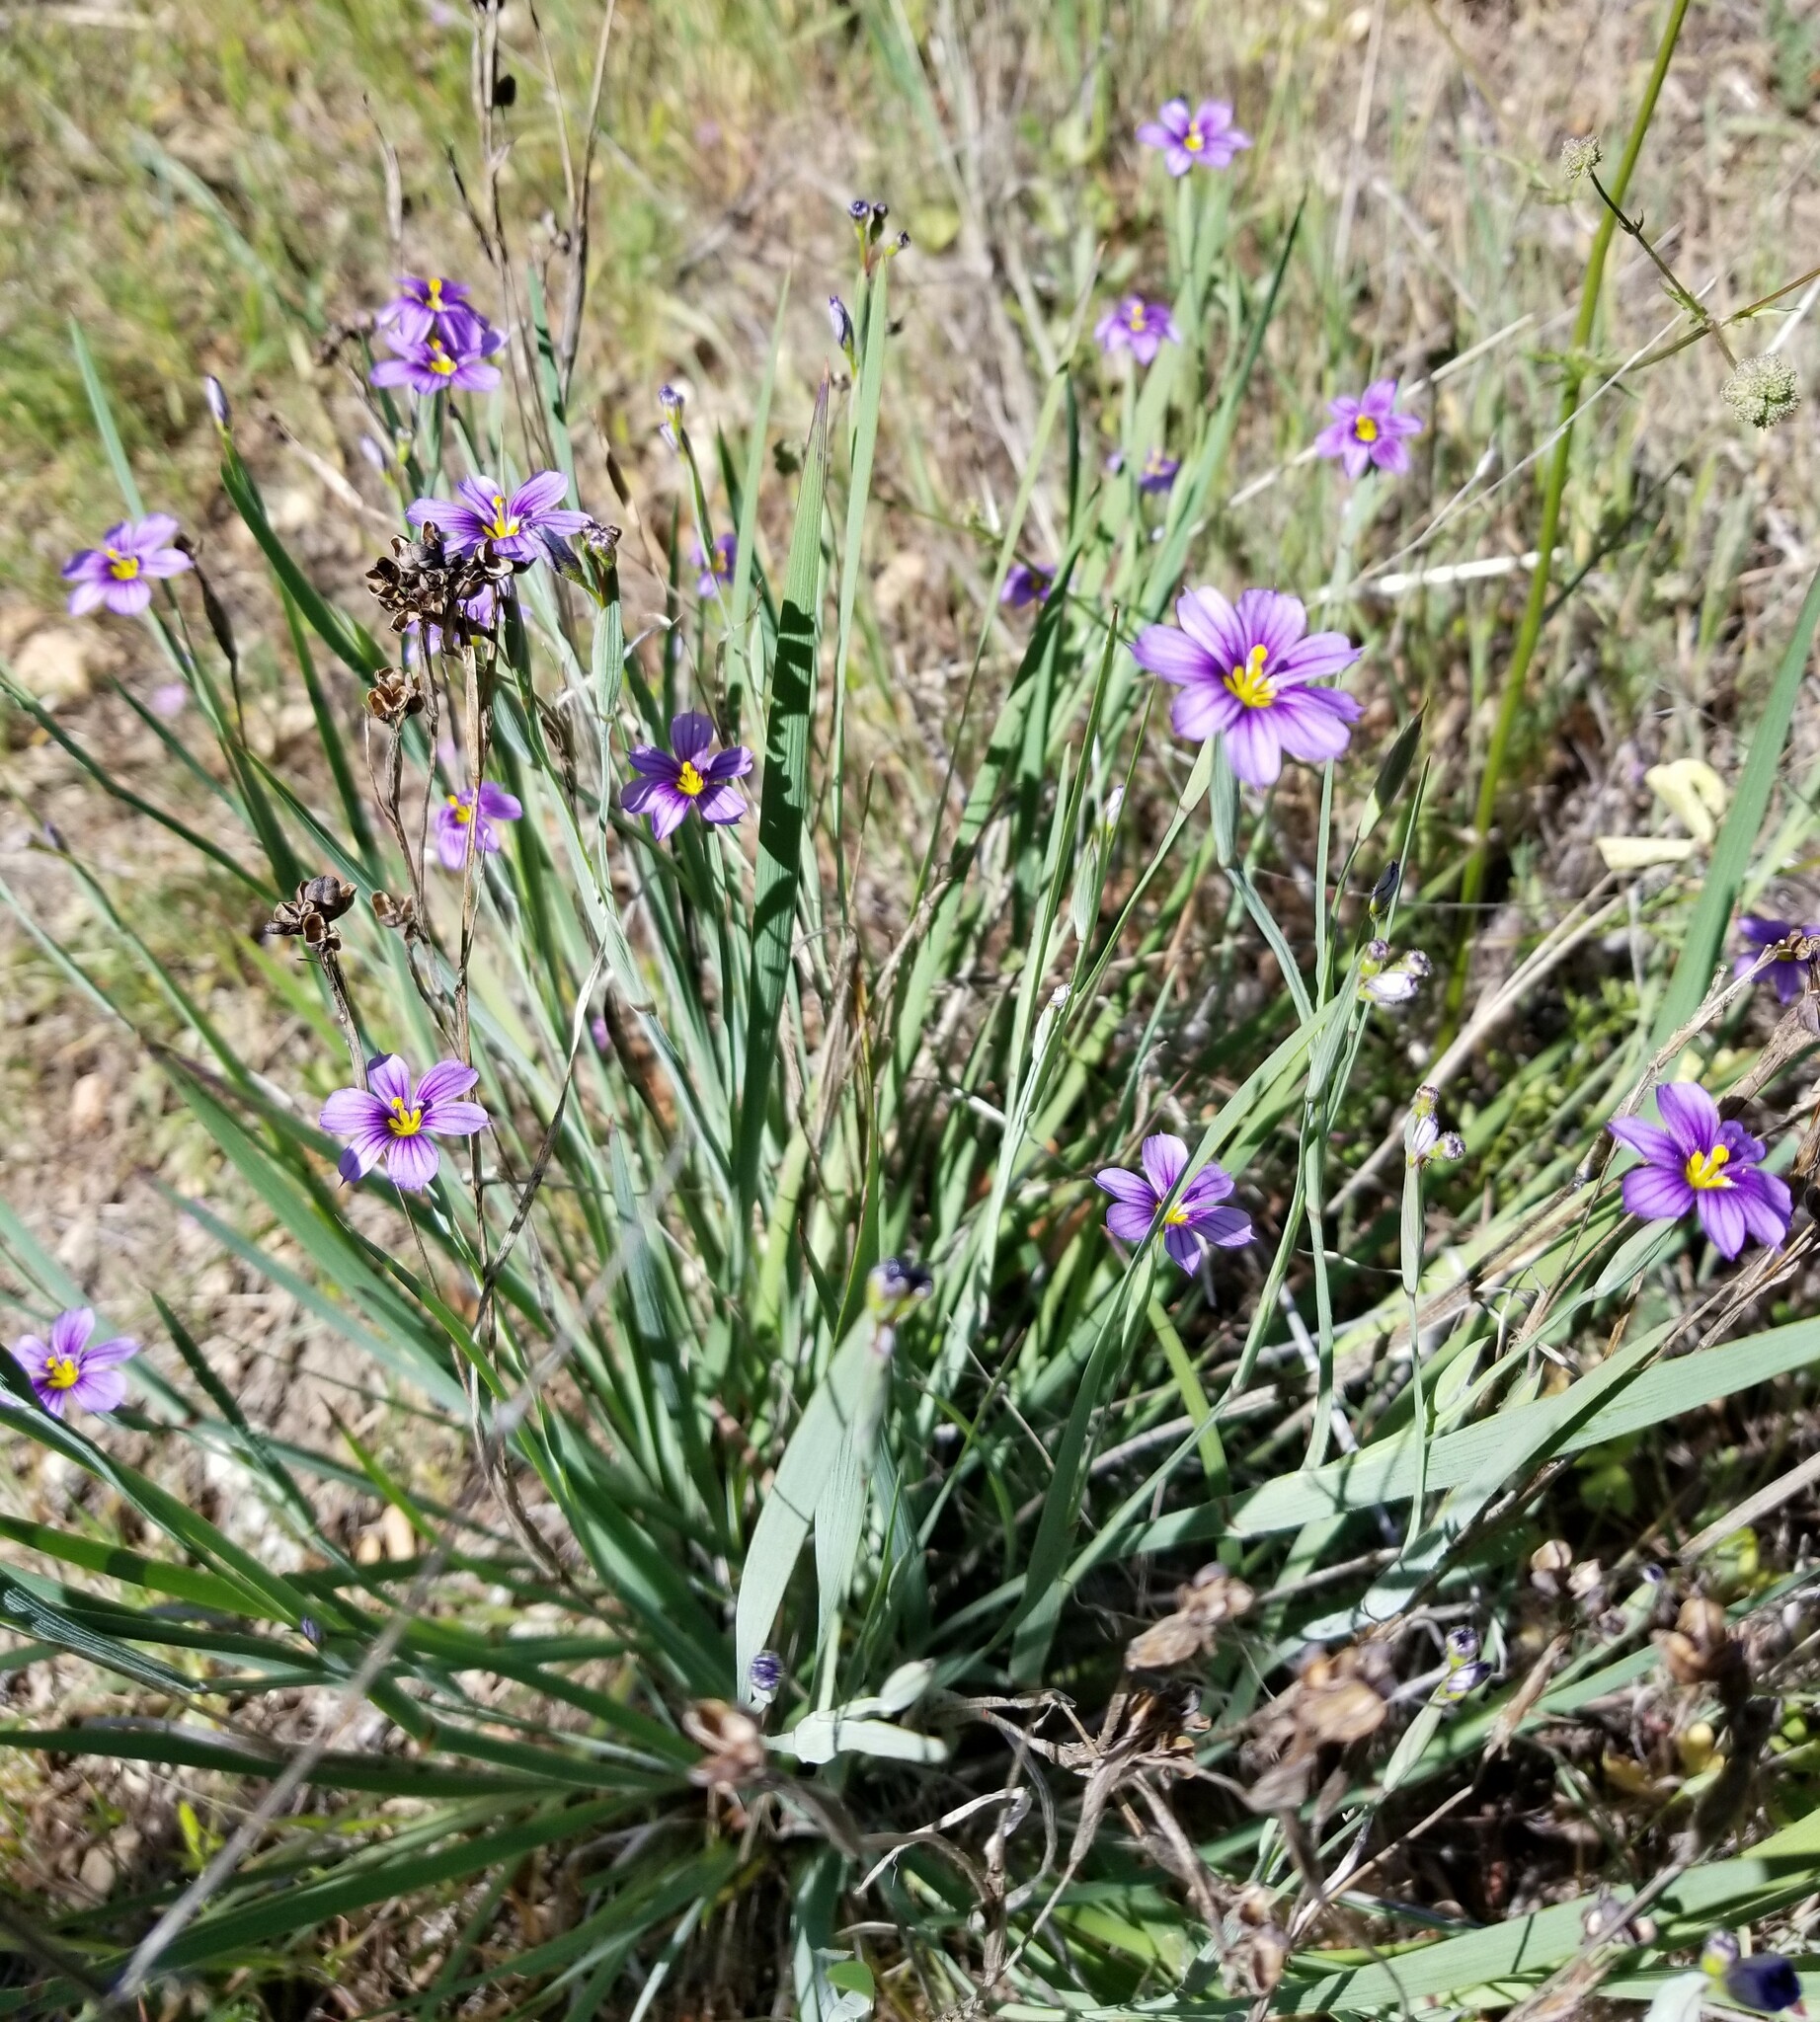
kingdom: Plantae
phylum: Tracheophyta
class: Liliopsida
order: Asparagales
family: Iridaceae
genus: Sisyrinchium
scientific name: Sisyrinchium bellum
